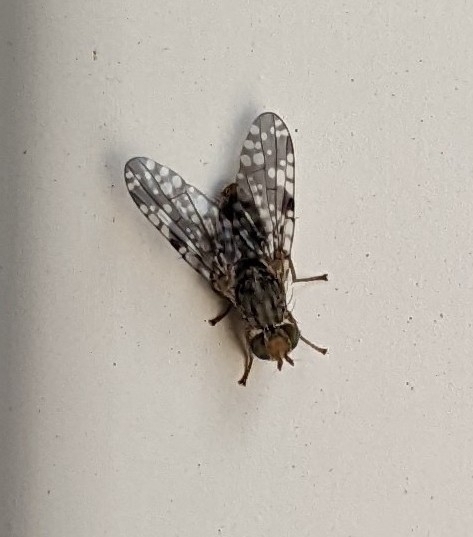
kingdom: Animalia
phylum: Arthropoda
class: Insecta
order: Diptera
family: Tephritidae
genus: Neotephritis
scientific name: Neotephritis finalis
